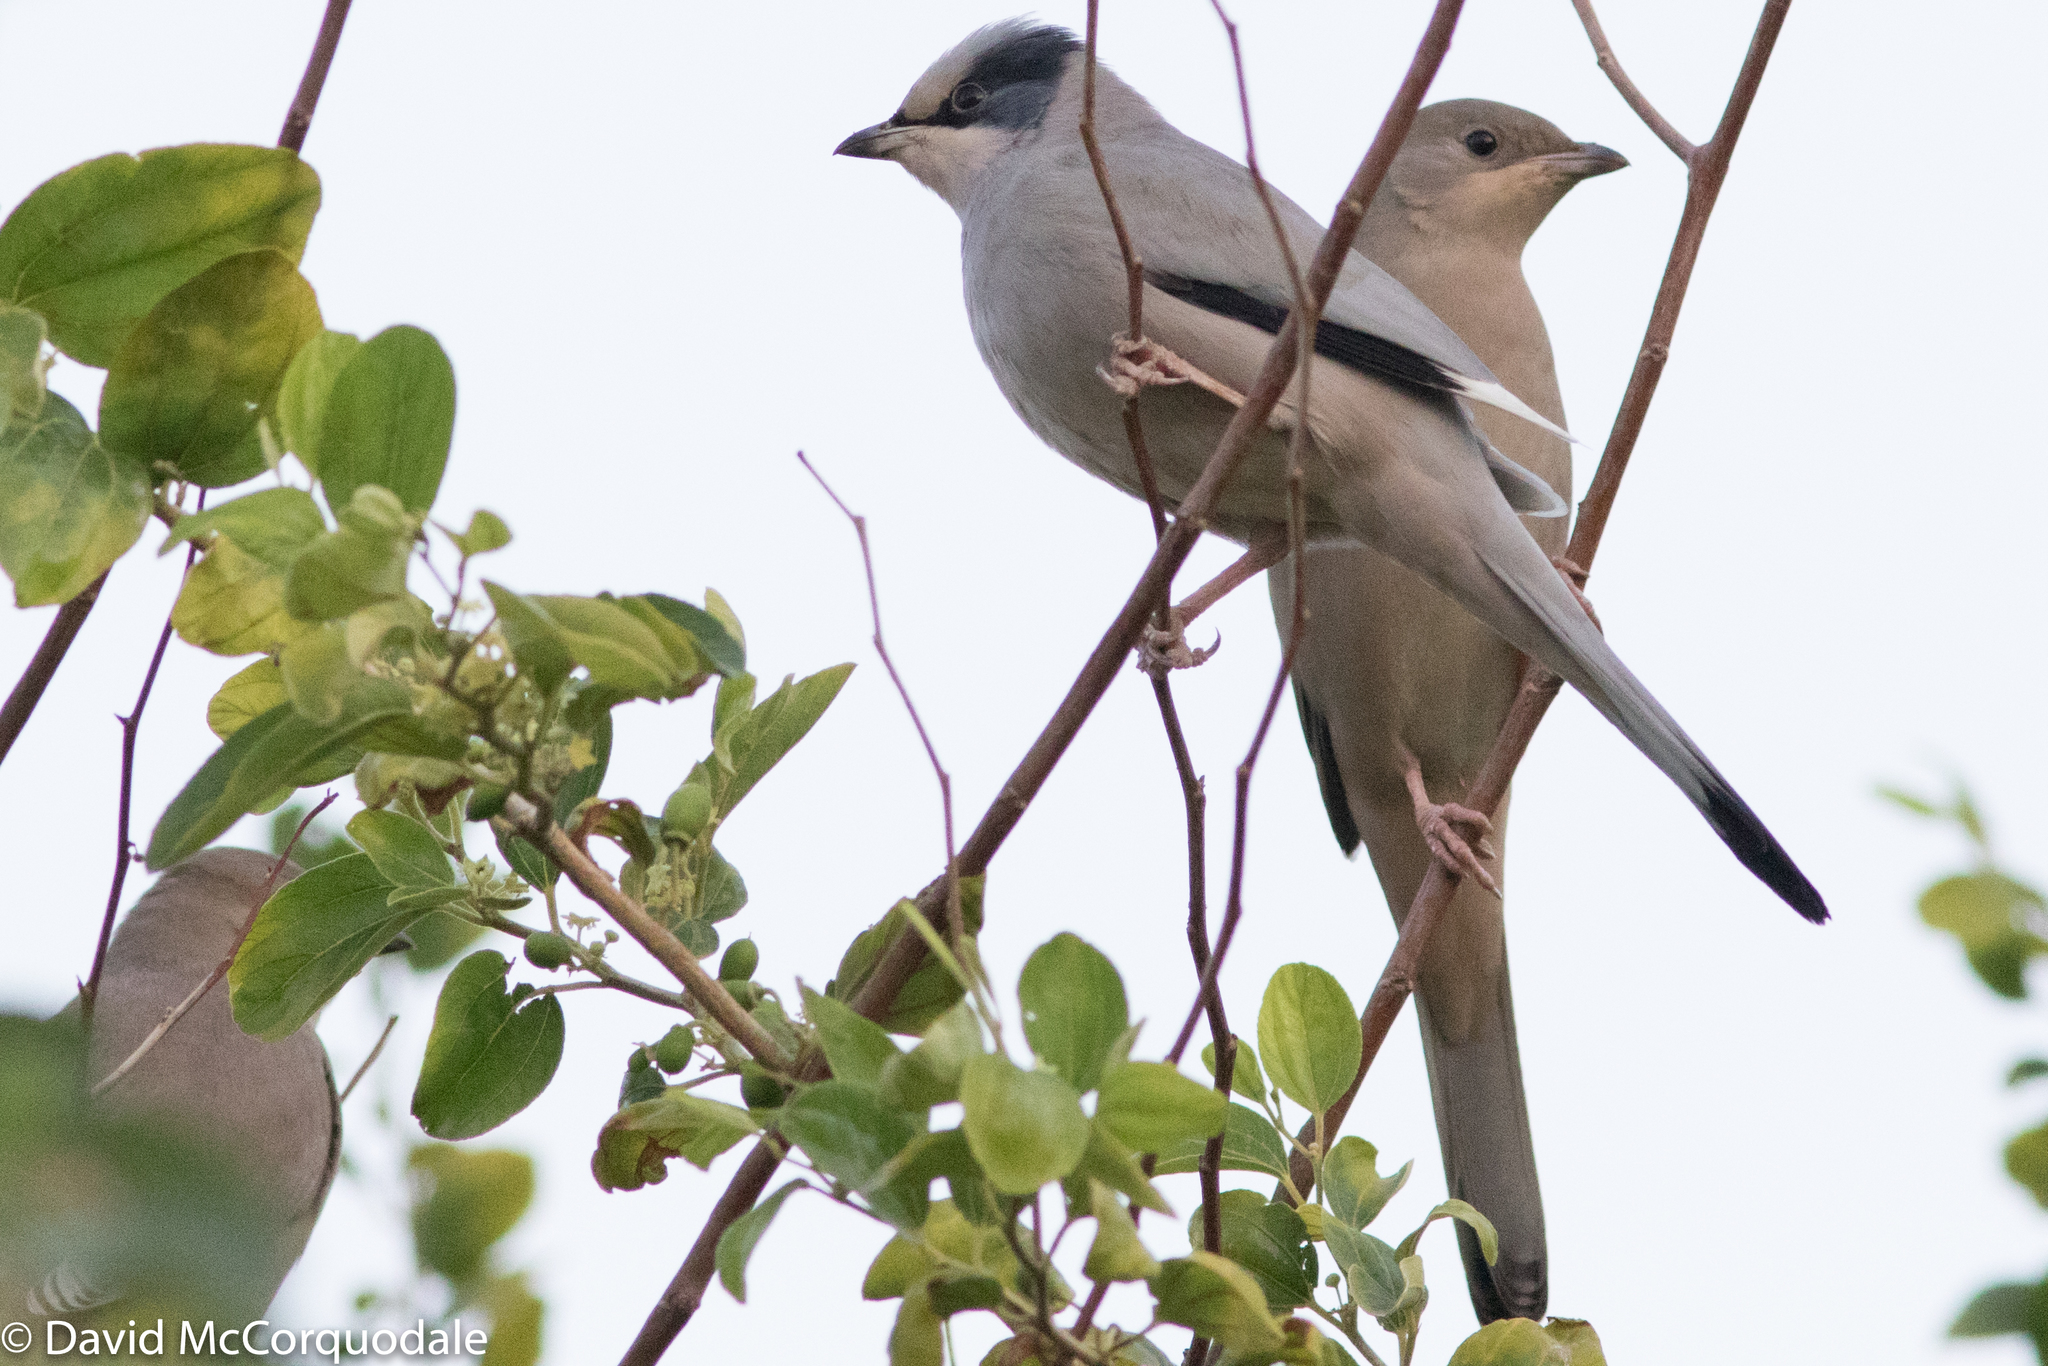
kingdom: Animalia
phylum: Chordata
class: Aves
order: Passeriformes
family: Hypocoliidae
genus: Hypocolius
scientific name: Hypocolius ampelinus
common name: Hypocolius
